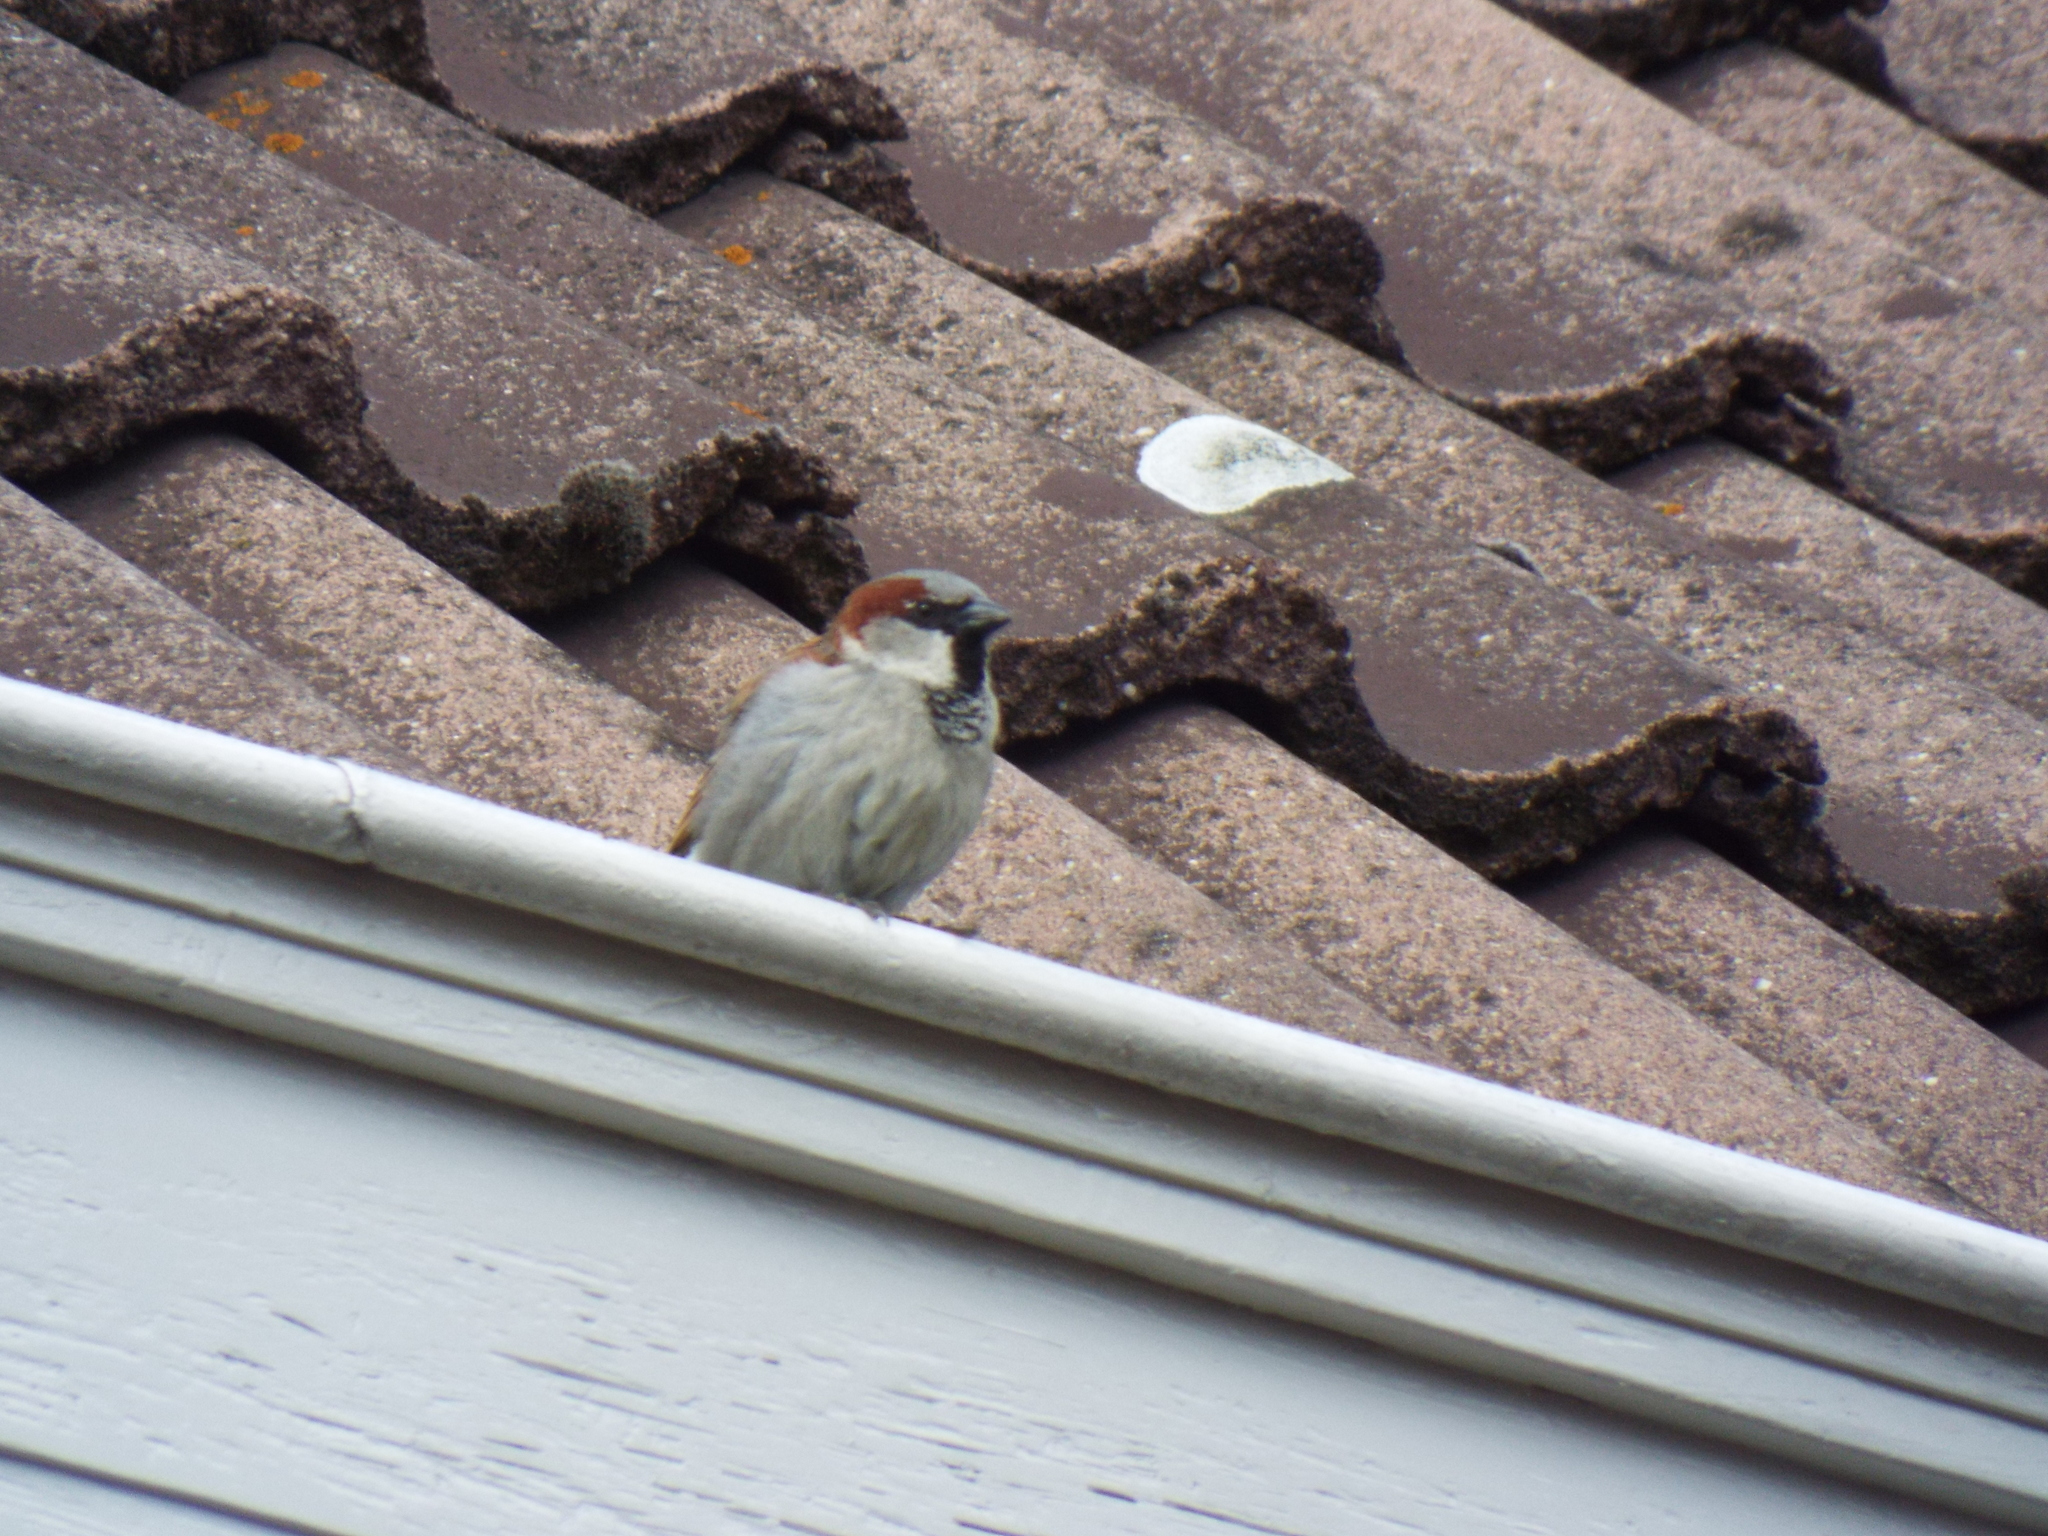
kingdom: Animalia
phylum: Chordata
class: Aves
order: Passeriformes
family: Passeridae
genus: Passer
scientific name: Passer domesticus
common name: House sparrow
